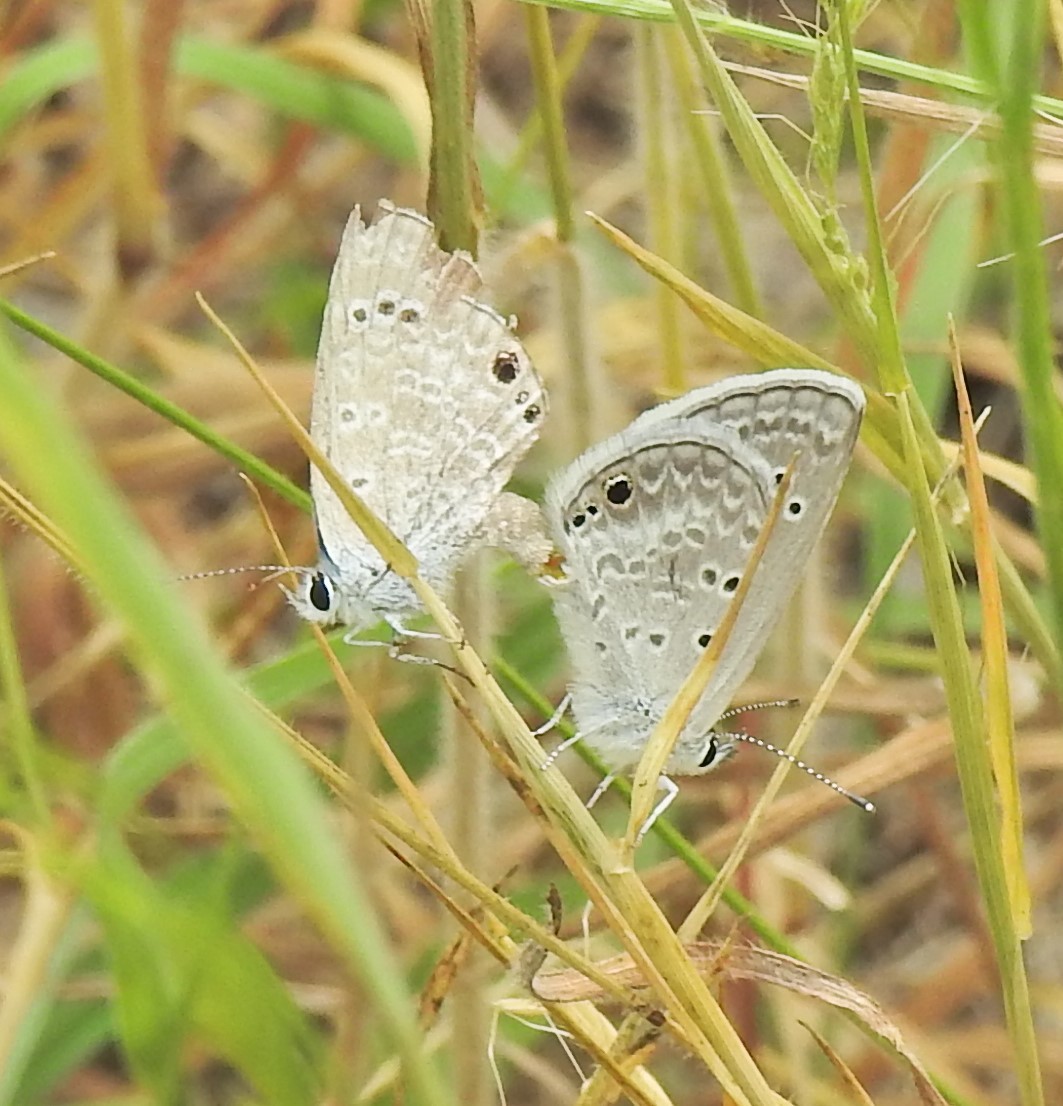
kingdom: Animalia
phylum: Arthropoda
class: Insecta
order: Lepidoptera
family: Lycaenidae
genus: Echinargus
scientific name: Echinargus isola
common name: Reakirt's blue
